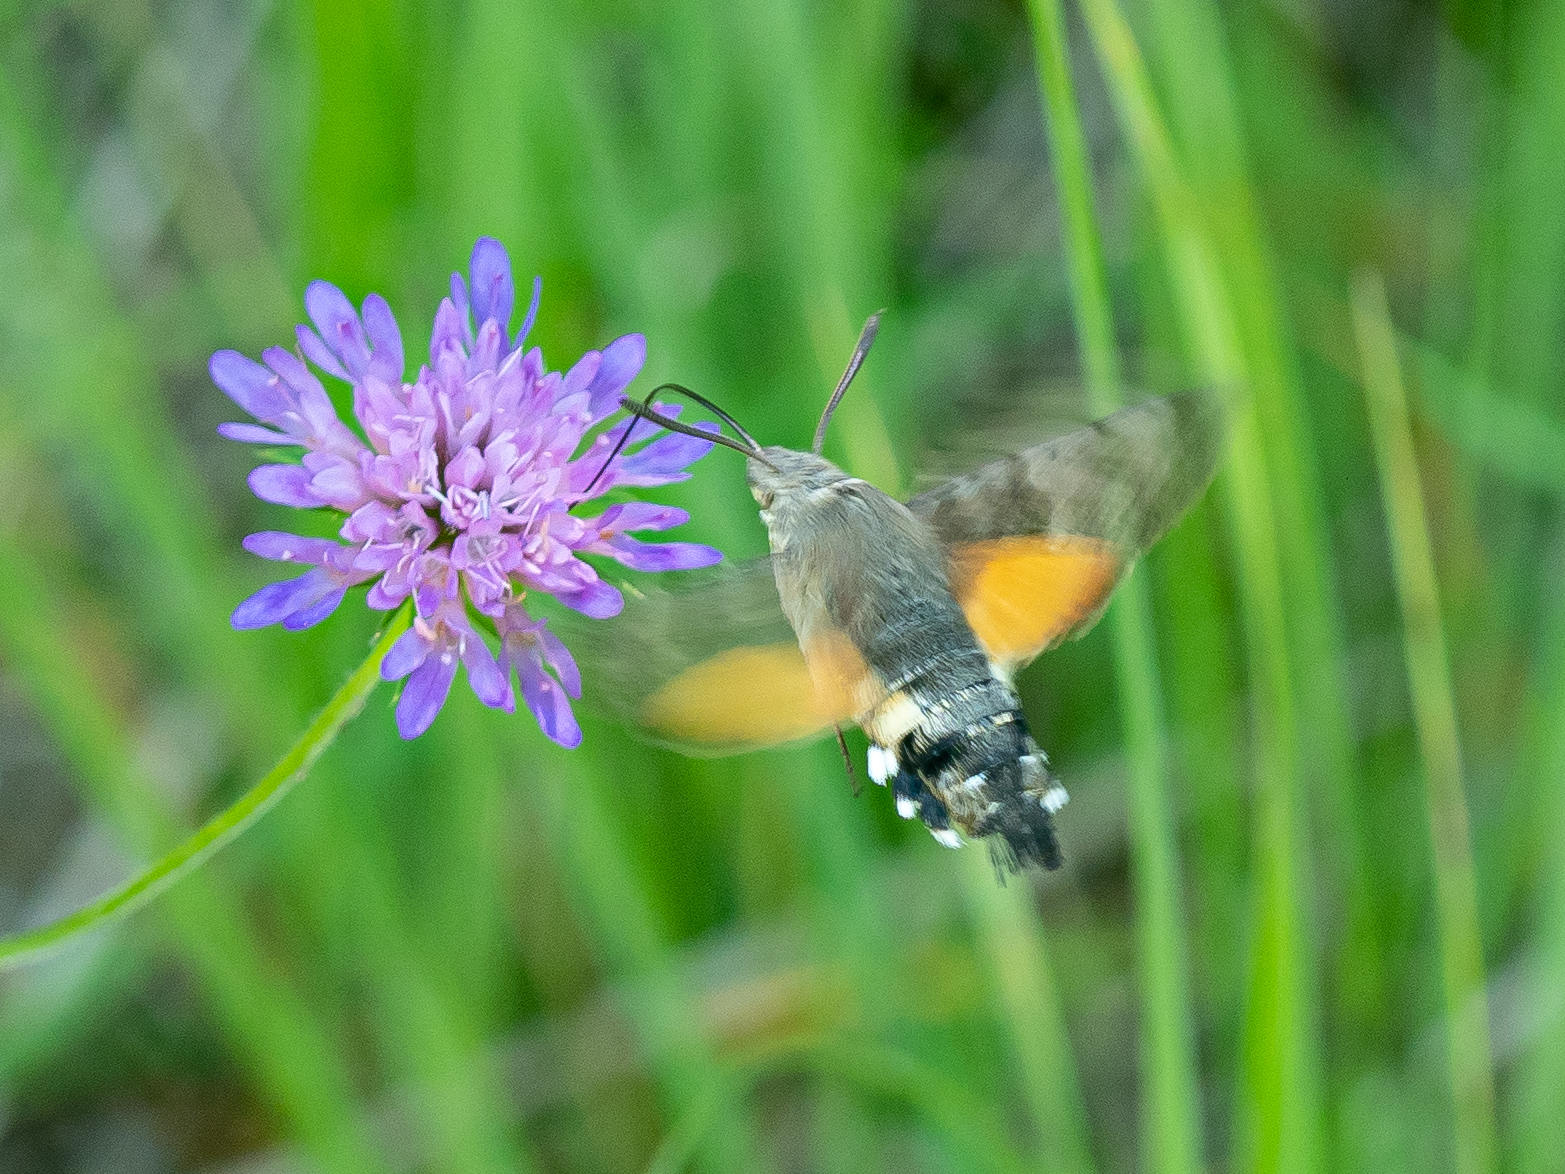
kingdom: Animalia
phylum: Arthropoda
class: Insecta
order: Lepidoptera
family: Sphingidae
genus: Macroglossum
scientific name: Macroglossum stellatarum
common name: Humming-bird hawk-moth
